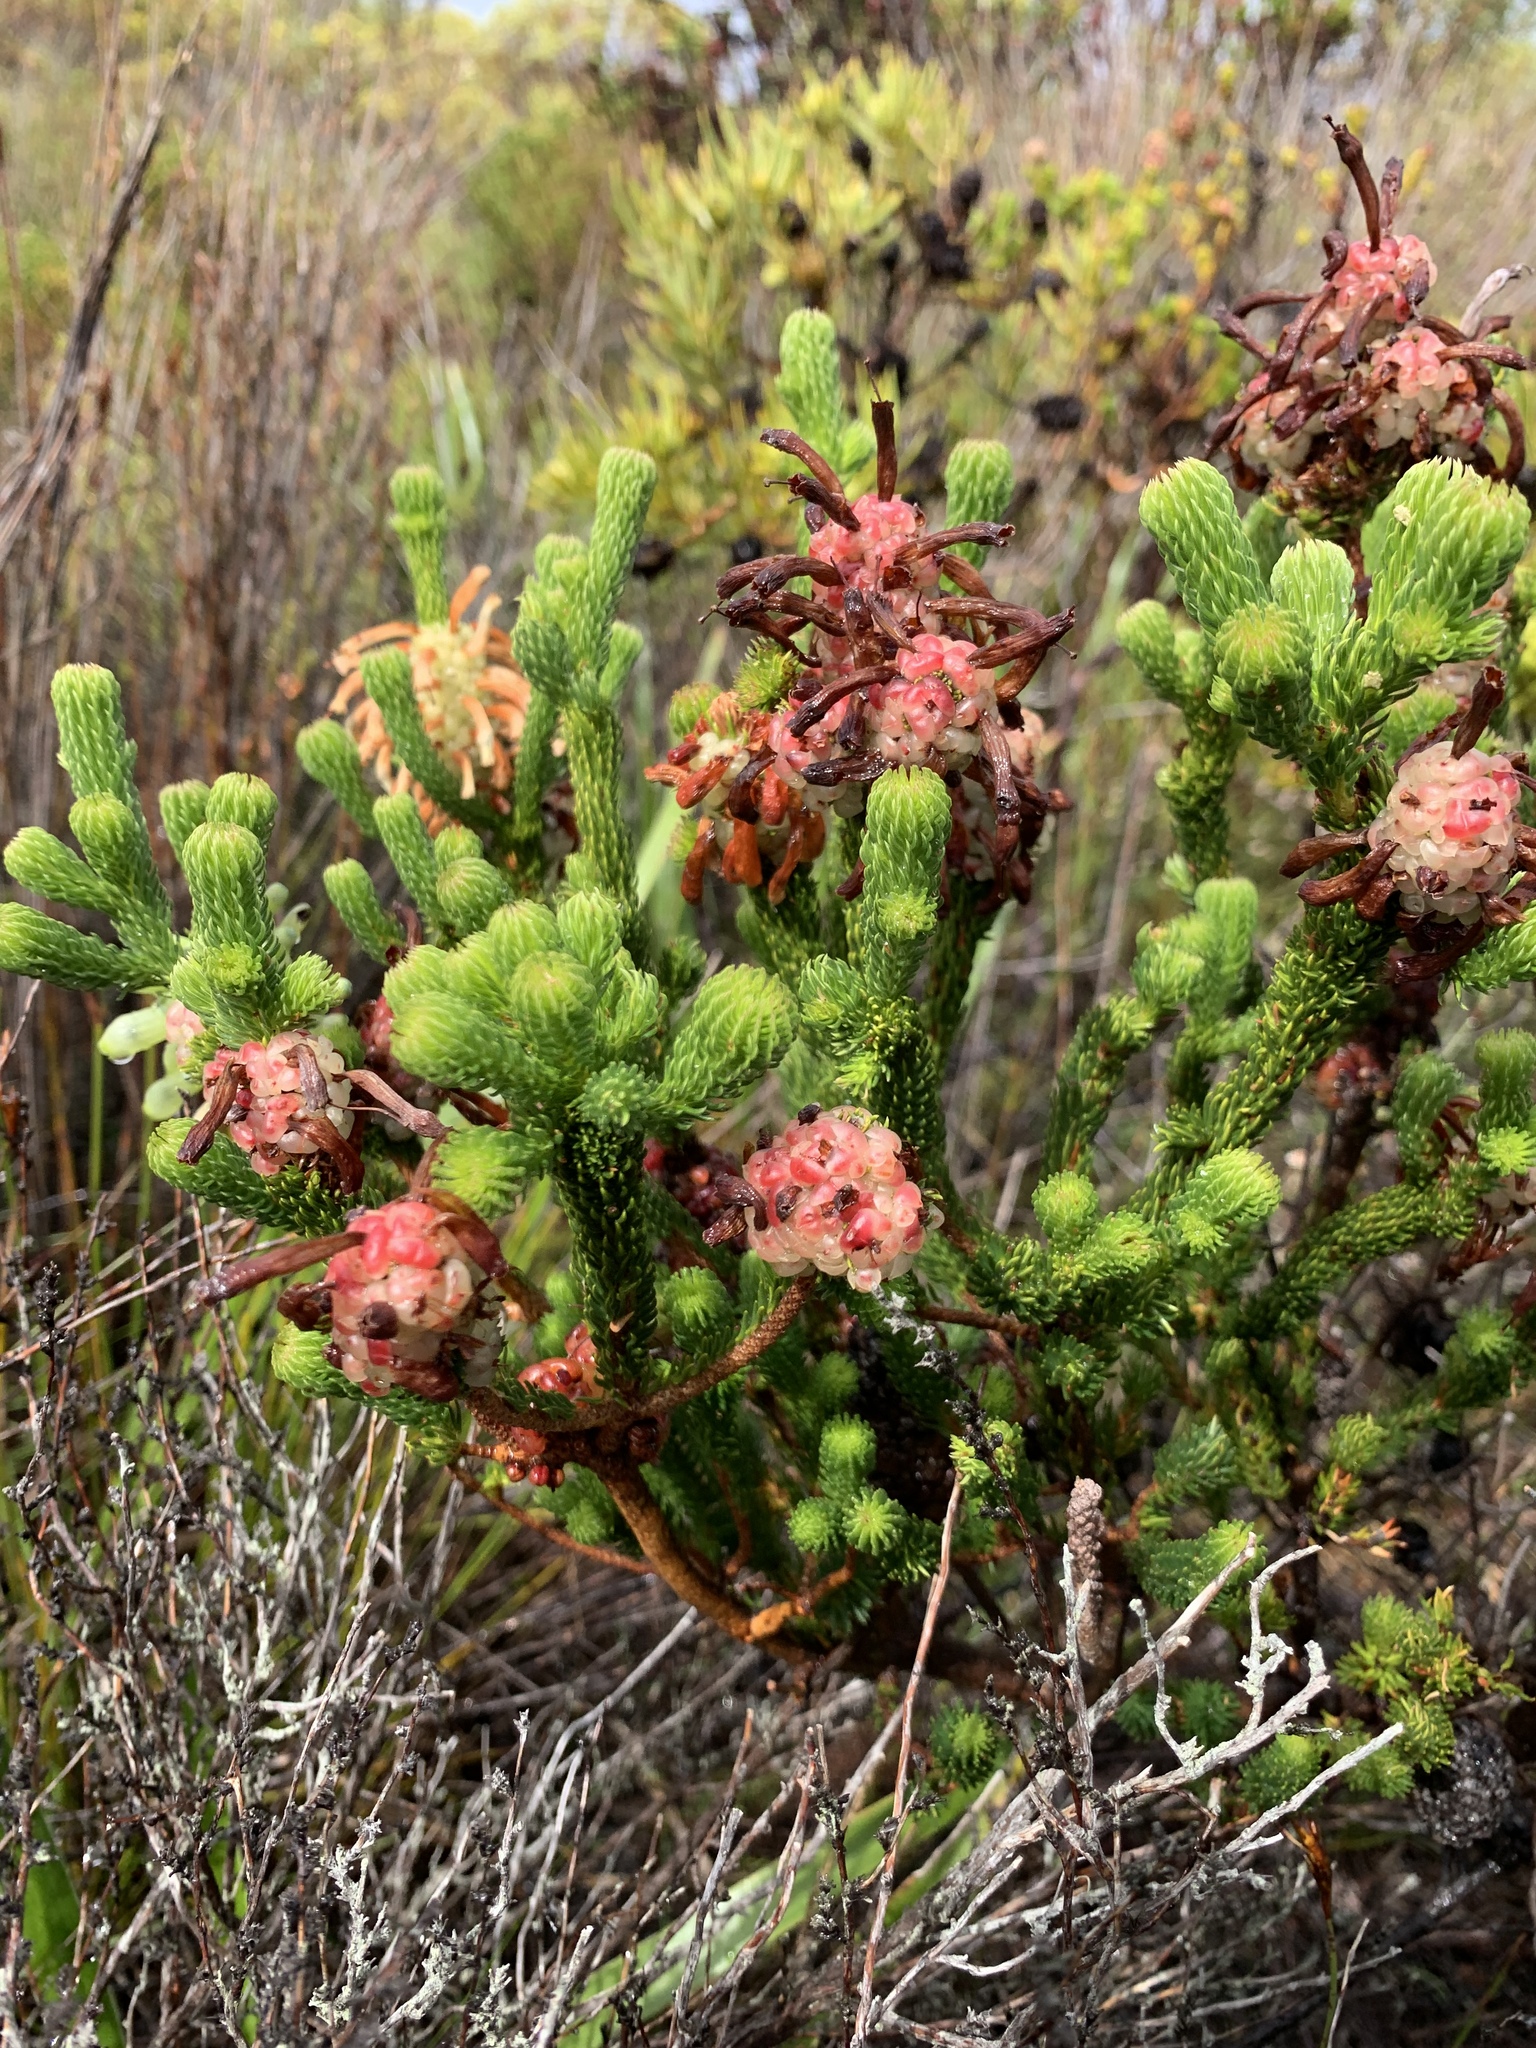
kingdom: Plantae
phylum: Tracheophyta
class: Magnoliopsida
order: Ericales
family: Ericaceae
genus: Erica
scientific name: Erica sessiliflora
